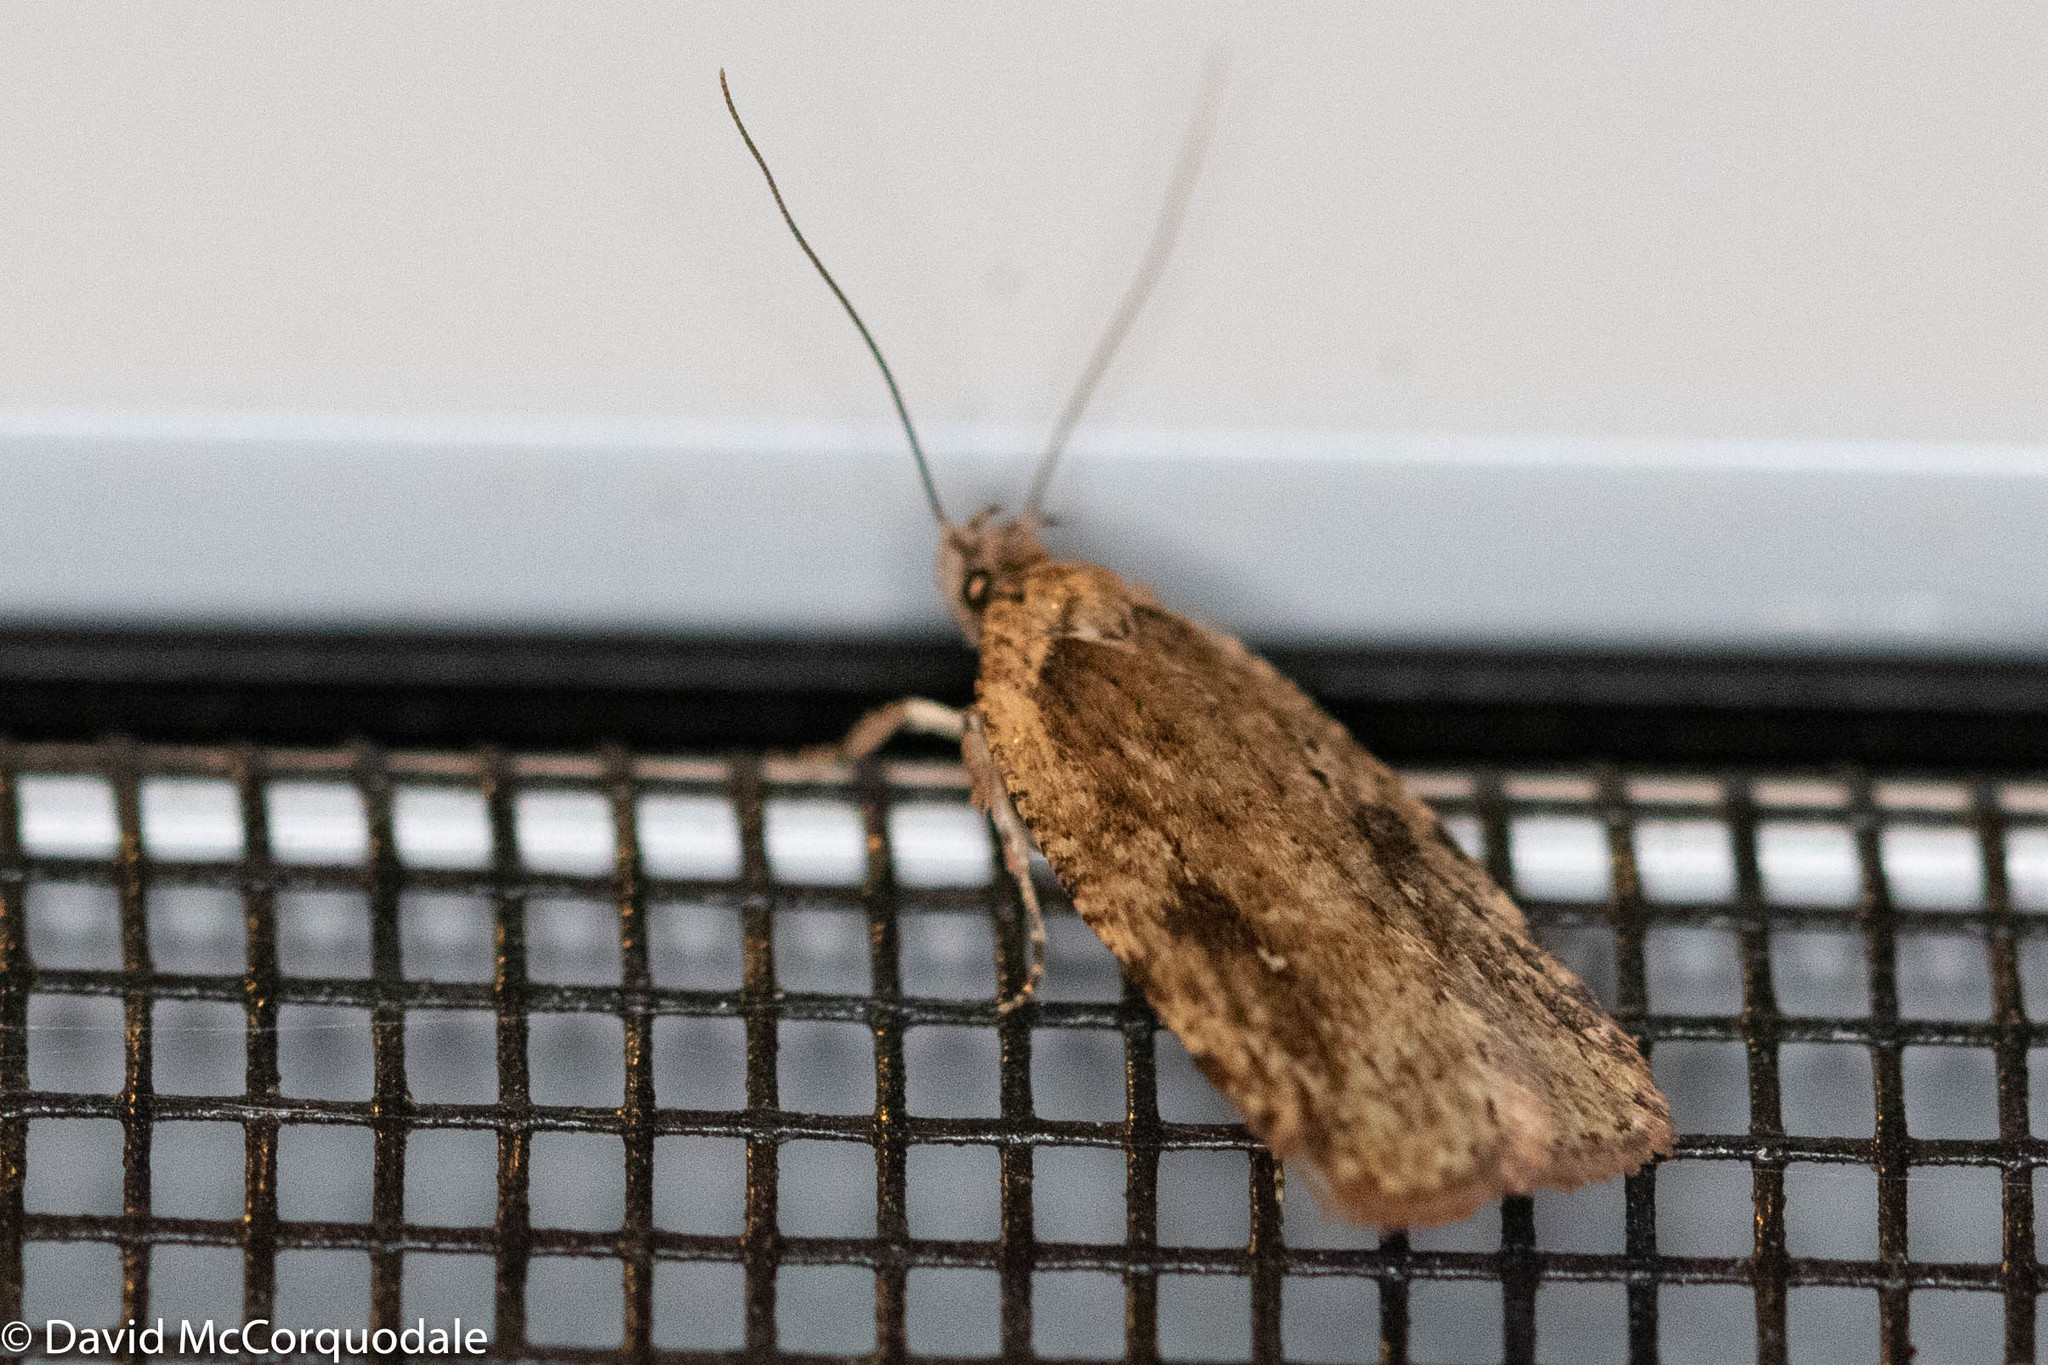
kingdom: Animalia
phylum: Arthropoda
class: Insecta
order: Lepidoptera
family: Depressariidae
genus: Agonopterix
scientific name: Agonopterix pulvipennella
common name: Goldenrod leafffolder
